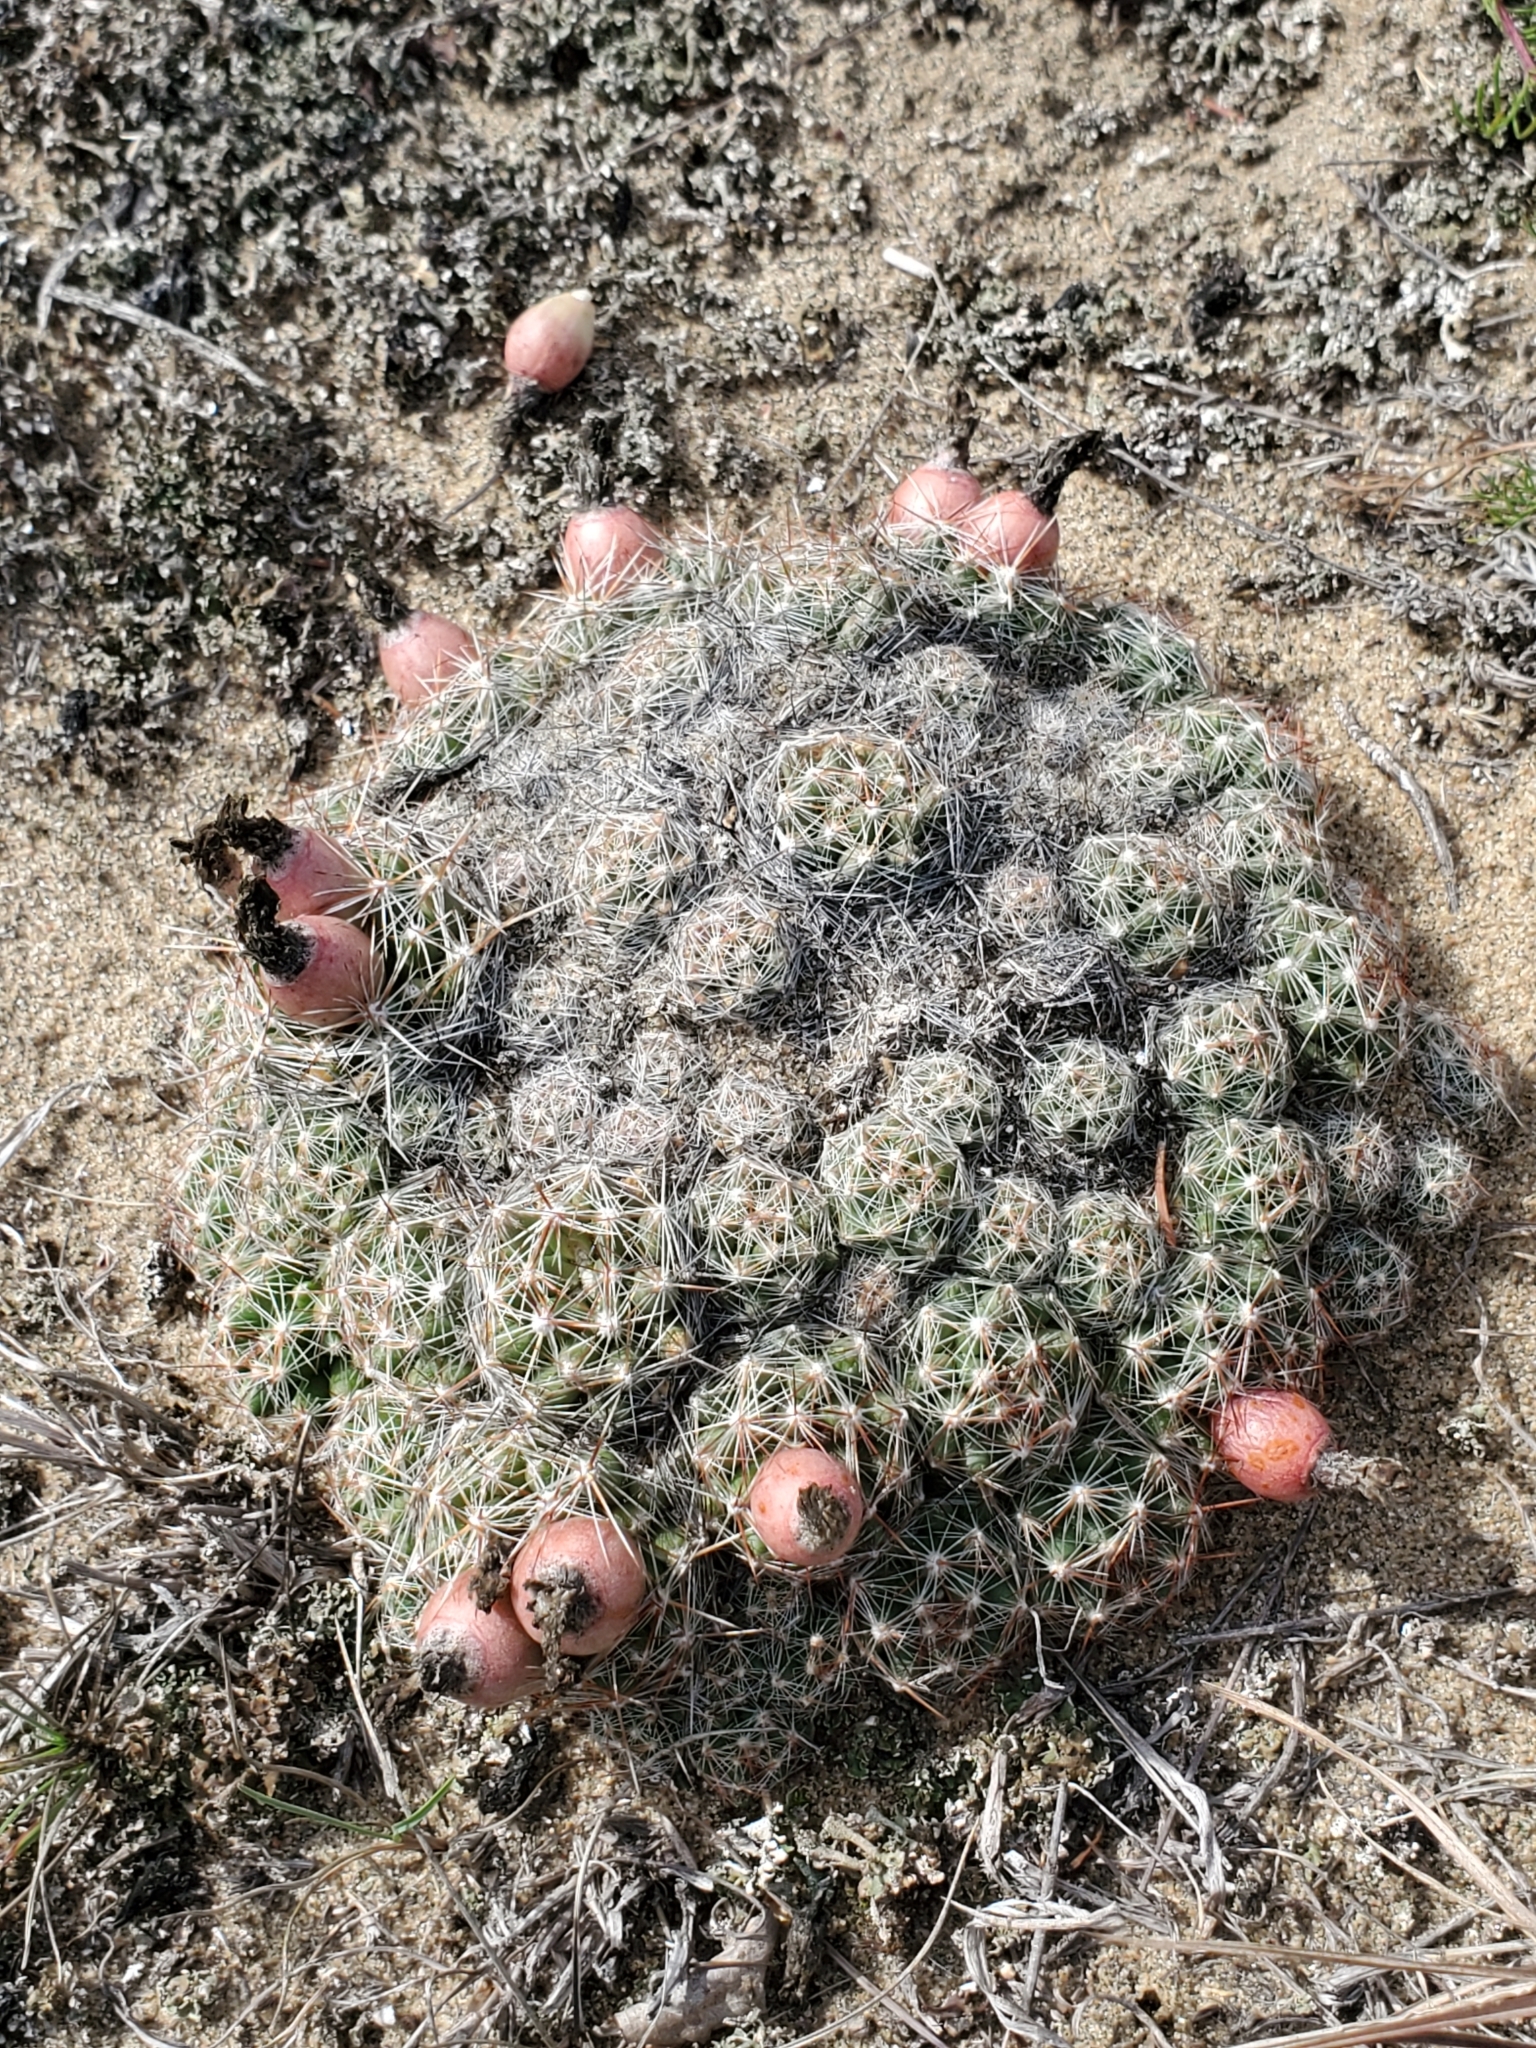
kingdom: Plantae
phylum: Tracheophyta
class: Magnoliopsida
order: Caryophyllales
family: Cactaceae
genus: Pelecyphora
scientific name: Pelecyphora vivipara
